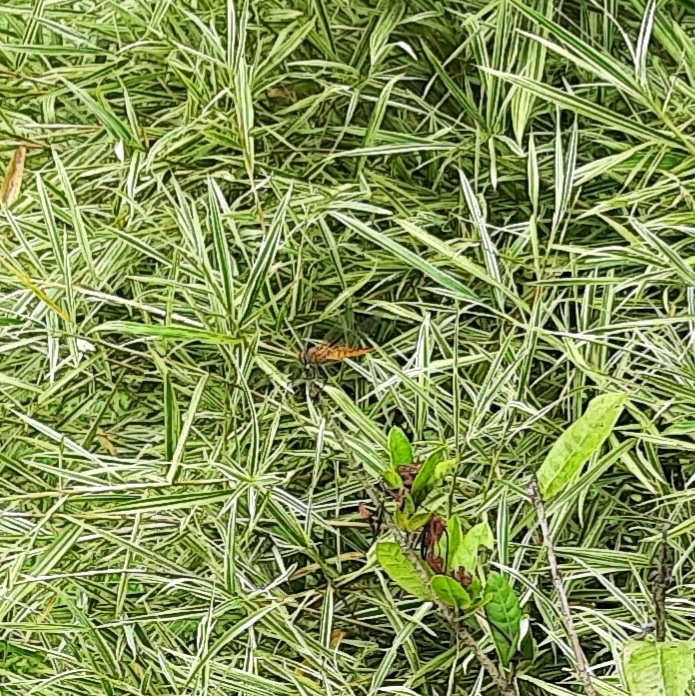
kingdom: Animalia
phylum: Arthropoda
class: Insecta
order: Odonata
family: Libellulidae
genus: Urothemis
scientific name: Urothemis signata
